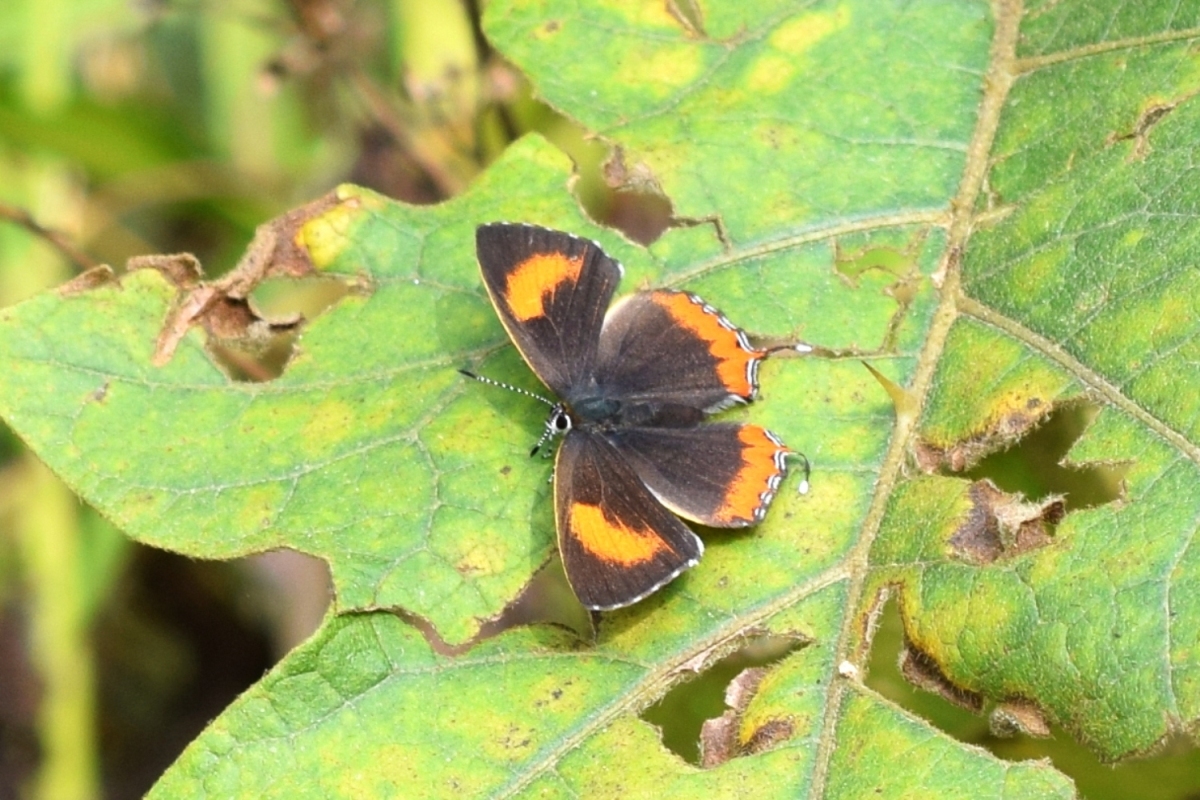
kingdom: Animalia
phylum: Arthropoda
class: Insecta
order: Lepidoptera
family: Lycaenidae
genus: Heliophorus
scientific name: Heliophorus epicles
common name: Purple sapphire
